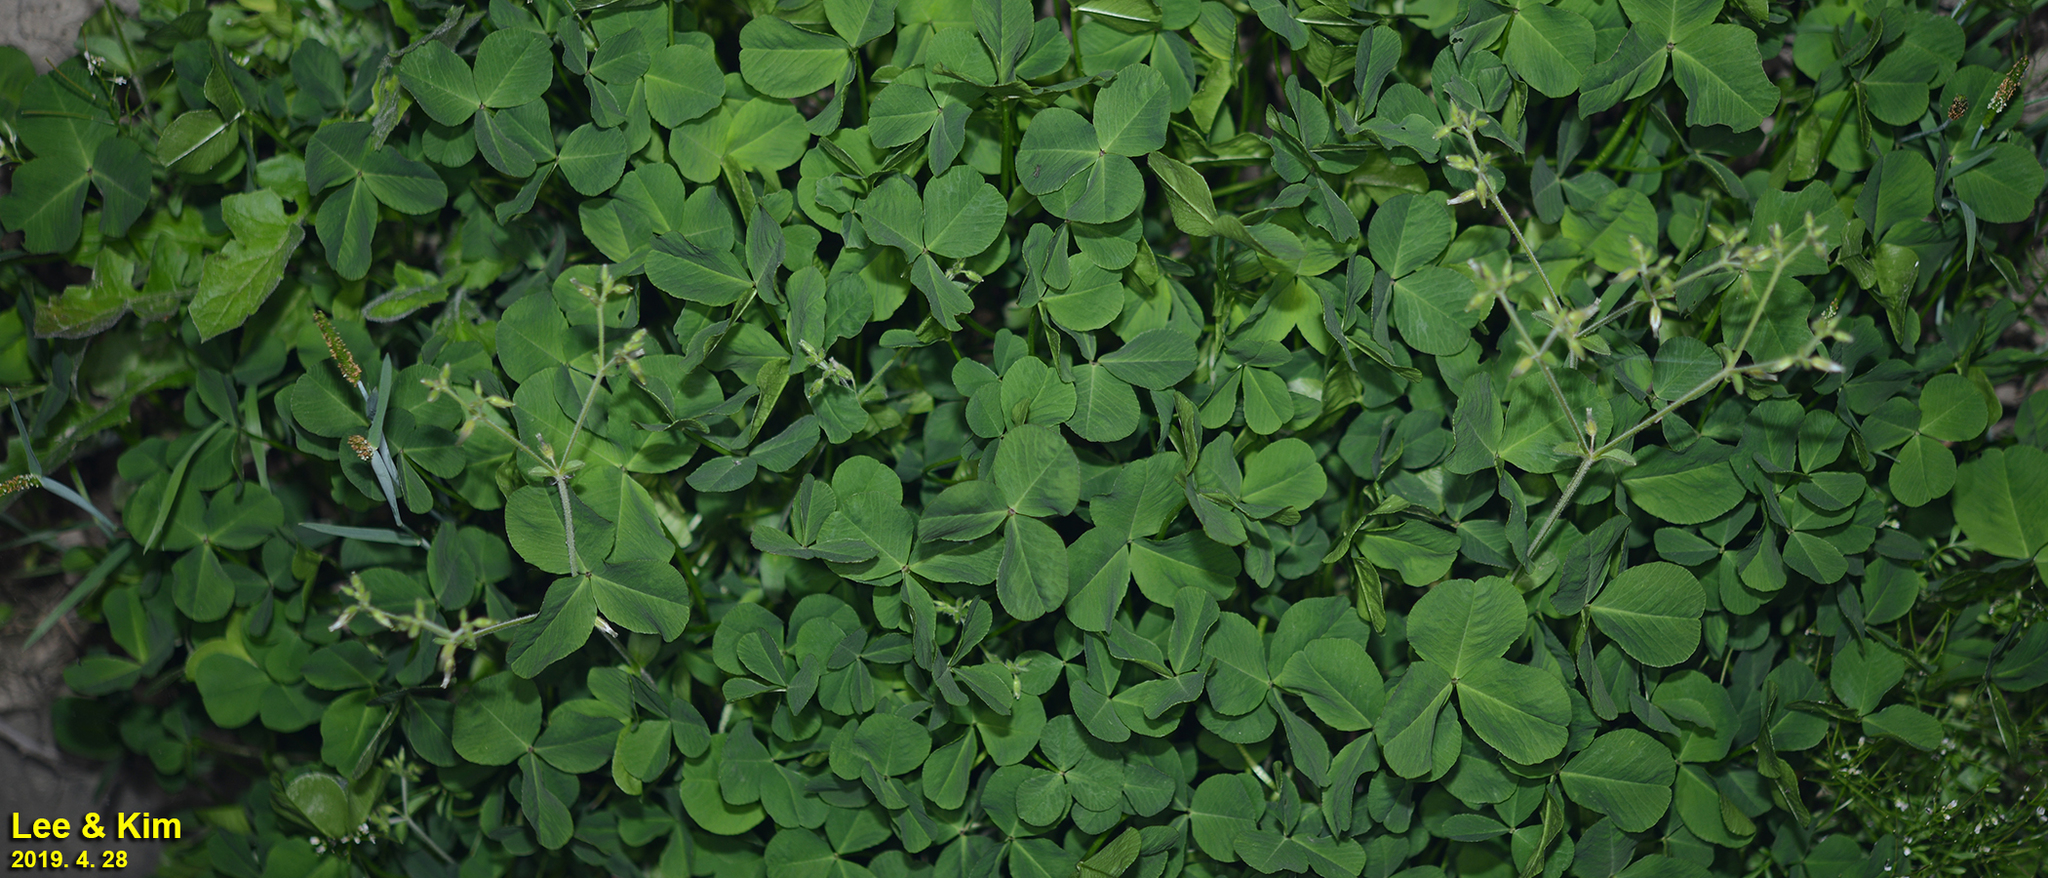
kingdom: Plantae
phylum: Tracheophyta
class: Magnoliopsida
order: Fabales
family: Fabaceae
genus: Trifolium
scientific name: Trifolium repens
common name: White clover
